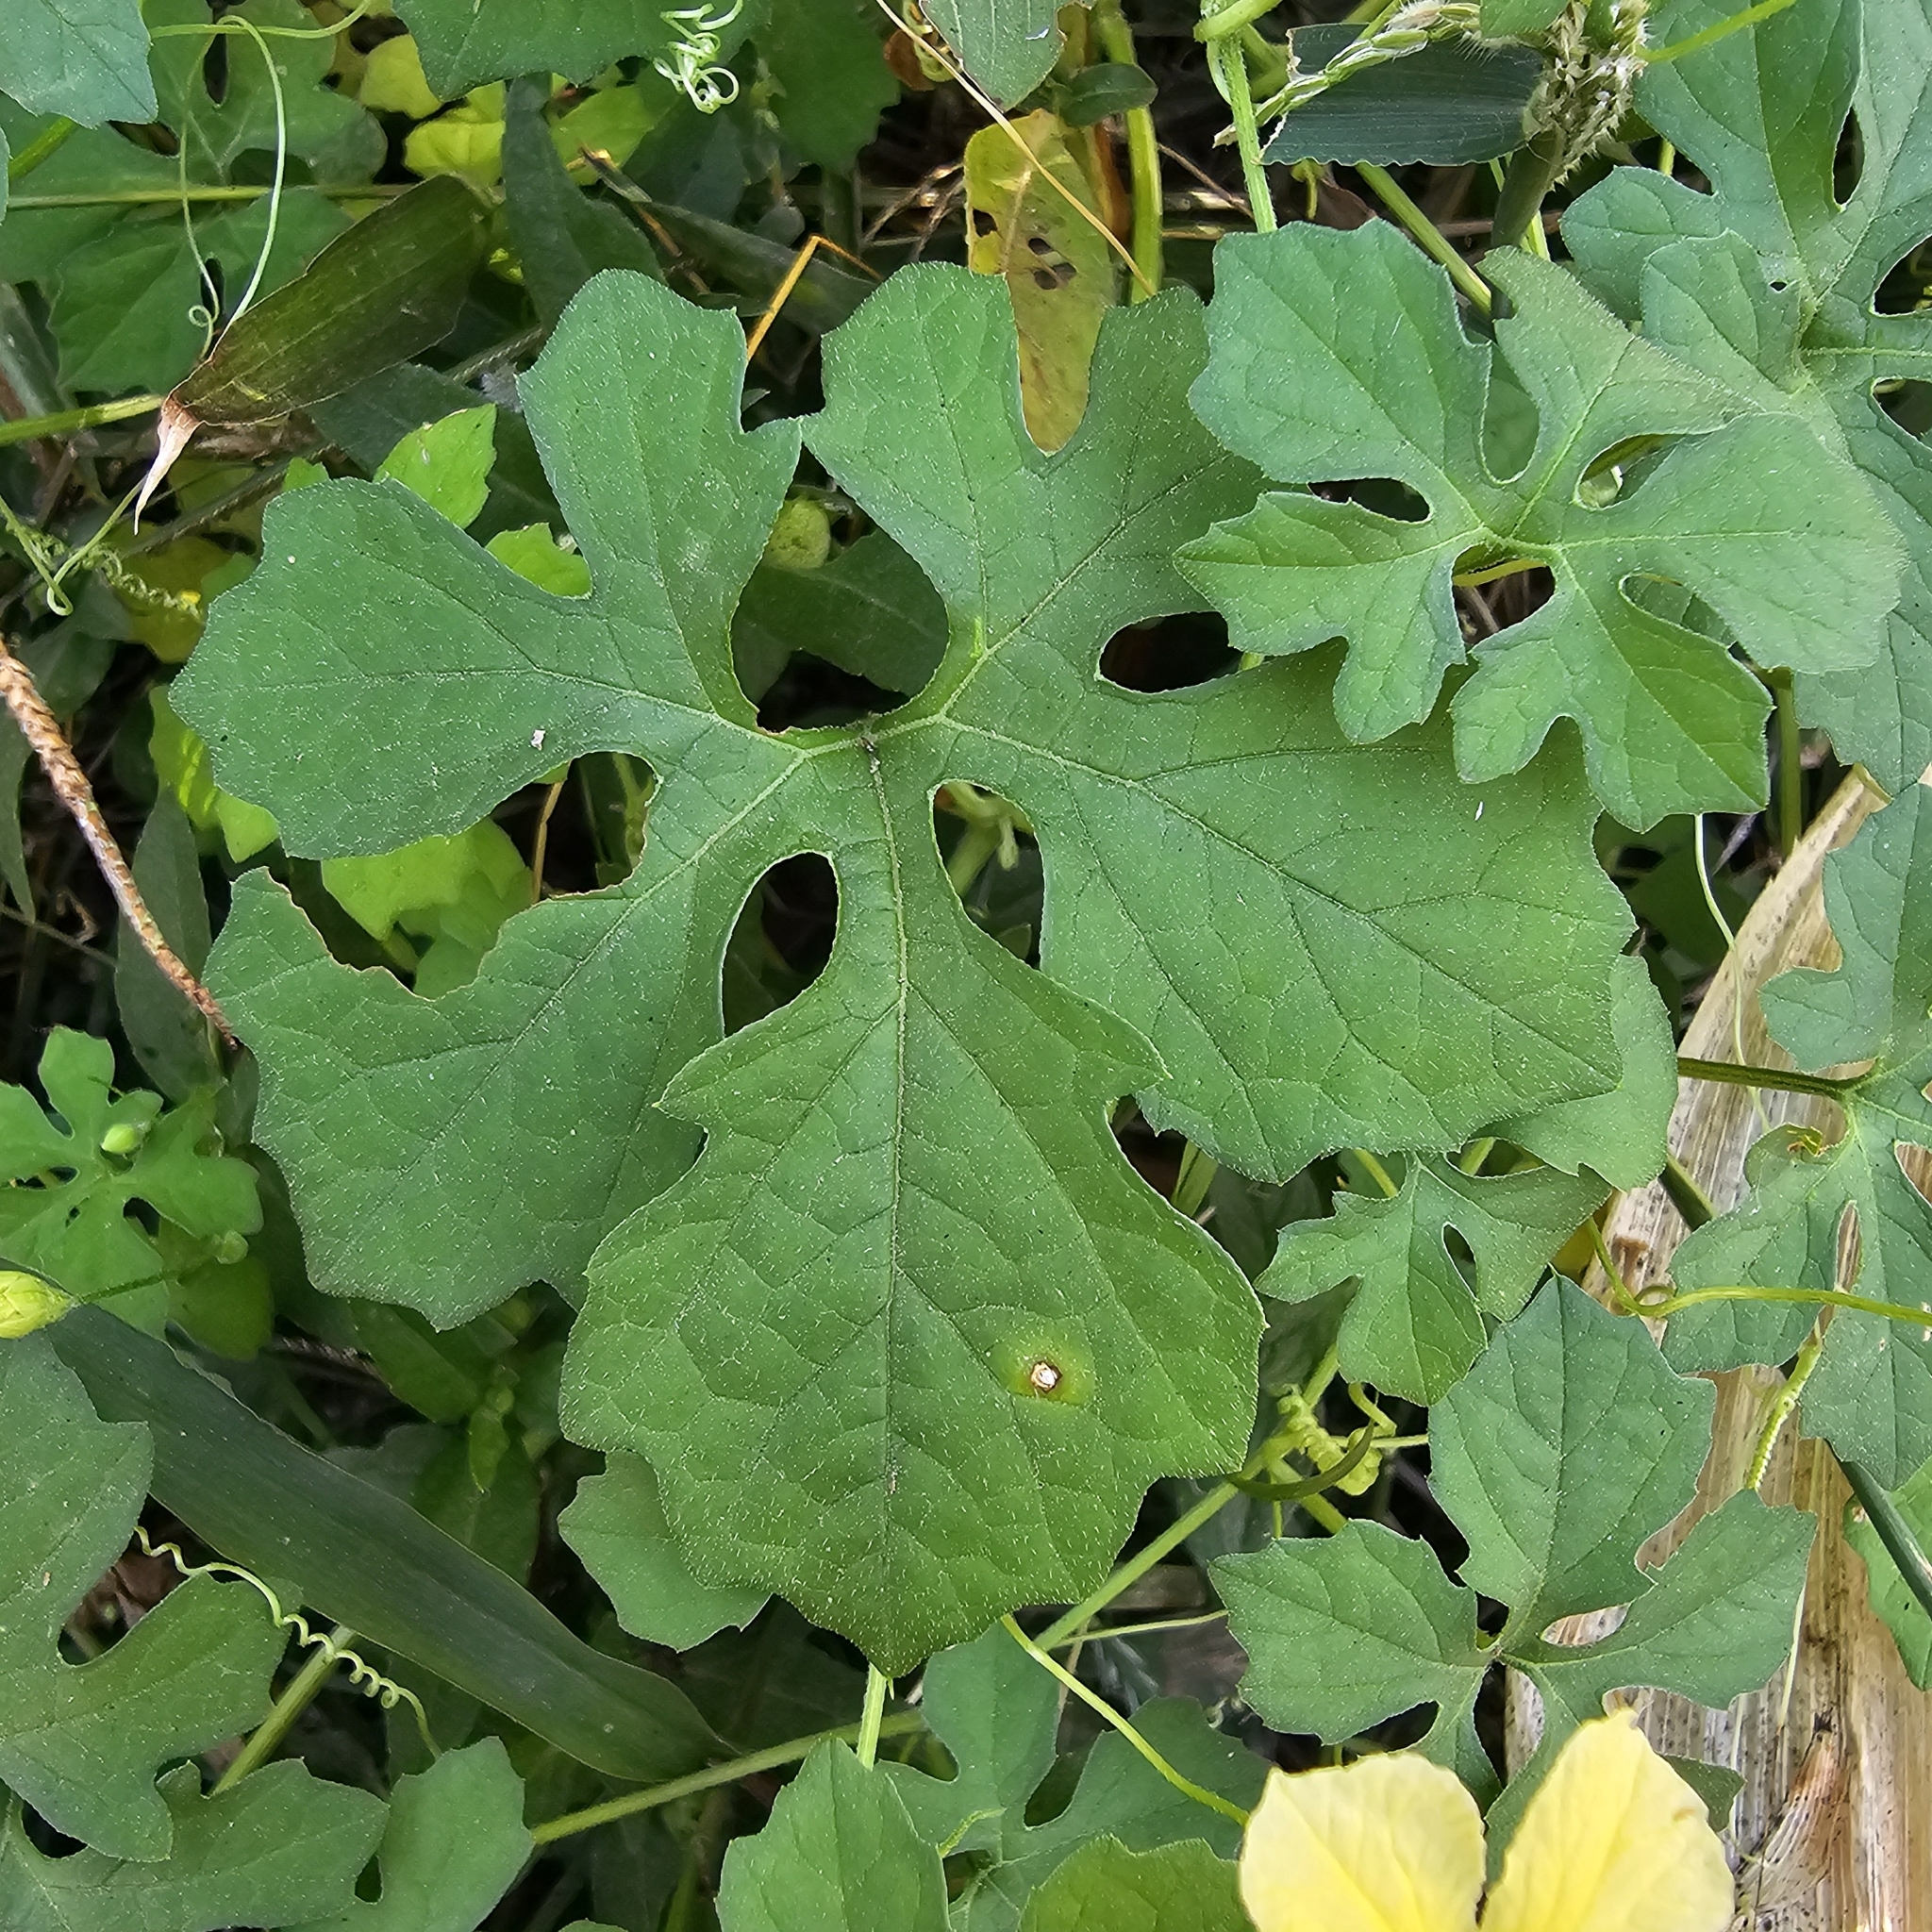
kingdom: Plantae
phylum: Tracheophyta
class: Magnoliopsida
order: Cucurbitales
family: Cucurbitaceae
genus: Momordica
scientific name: Momordica charantia
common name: Balsampear
